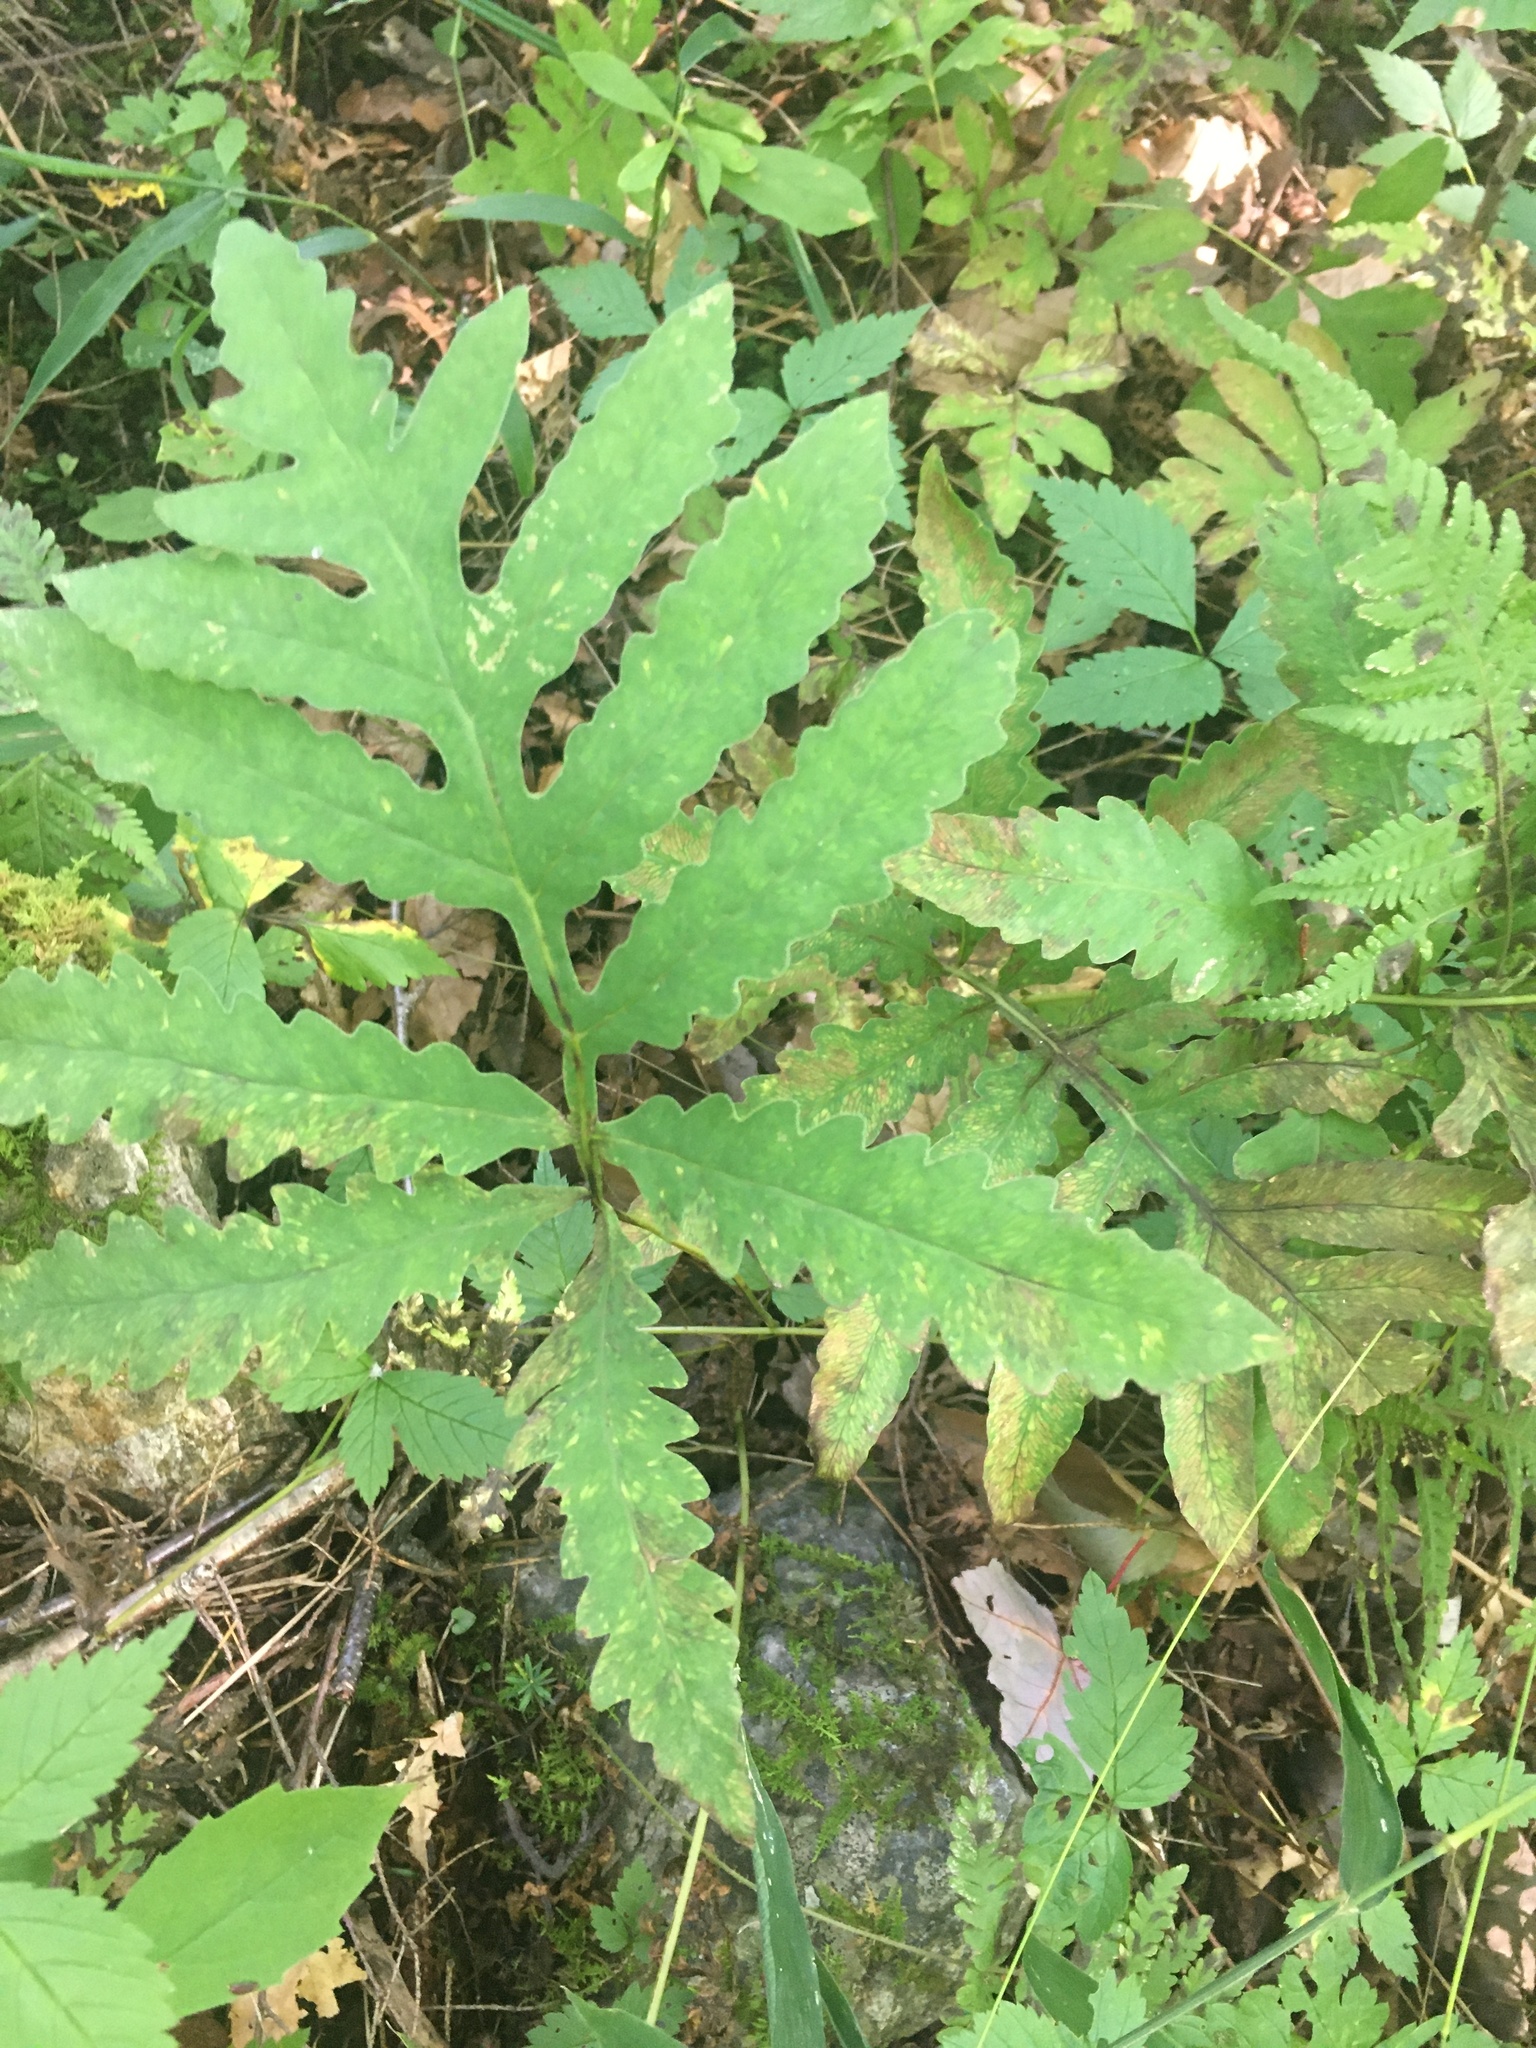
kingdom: Plantae
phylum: Tracheophyta
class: Polypodiopsida
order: Polypodiales
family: Onocleaceae
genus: Onoclea
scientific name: Onoclea sensibilis
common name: Sensitive fern
